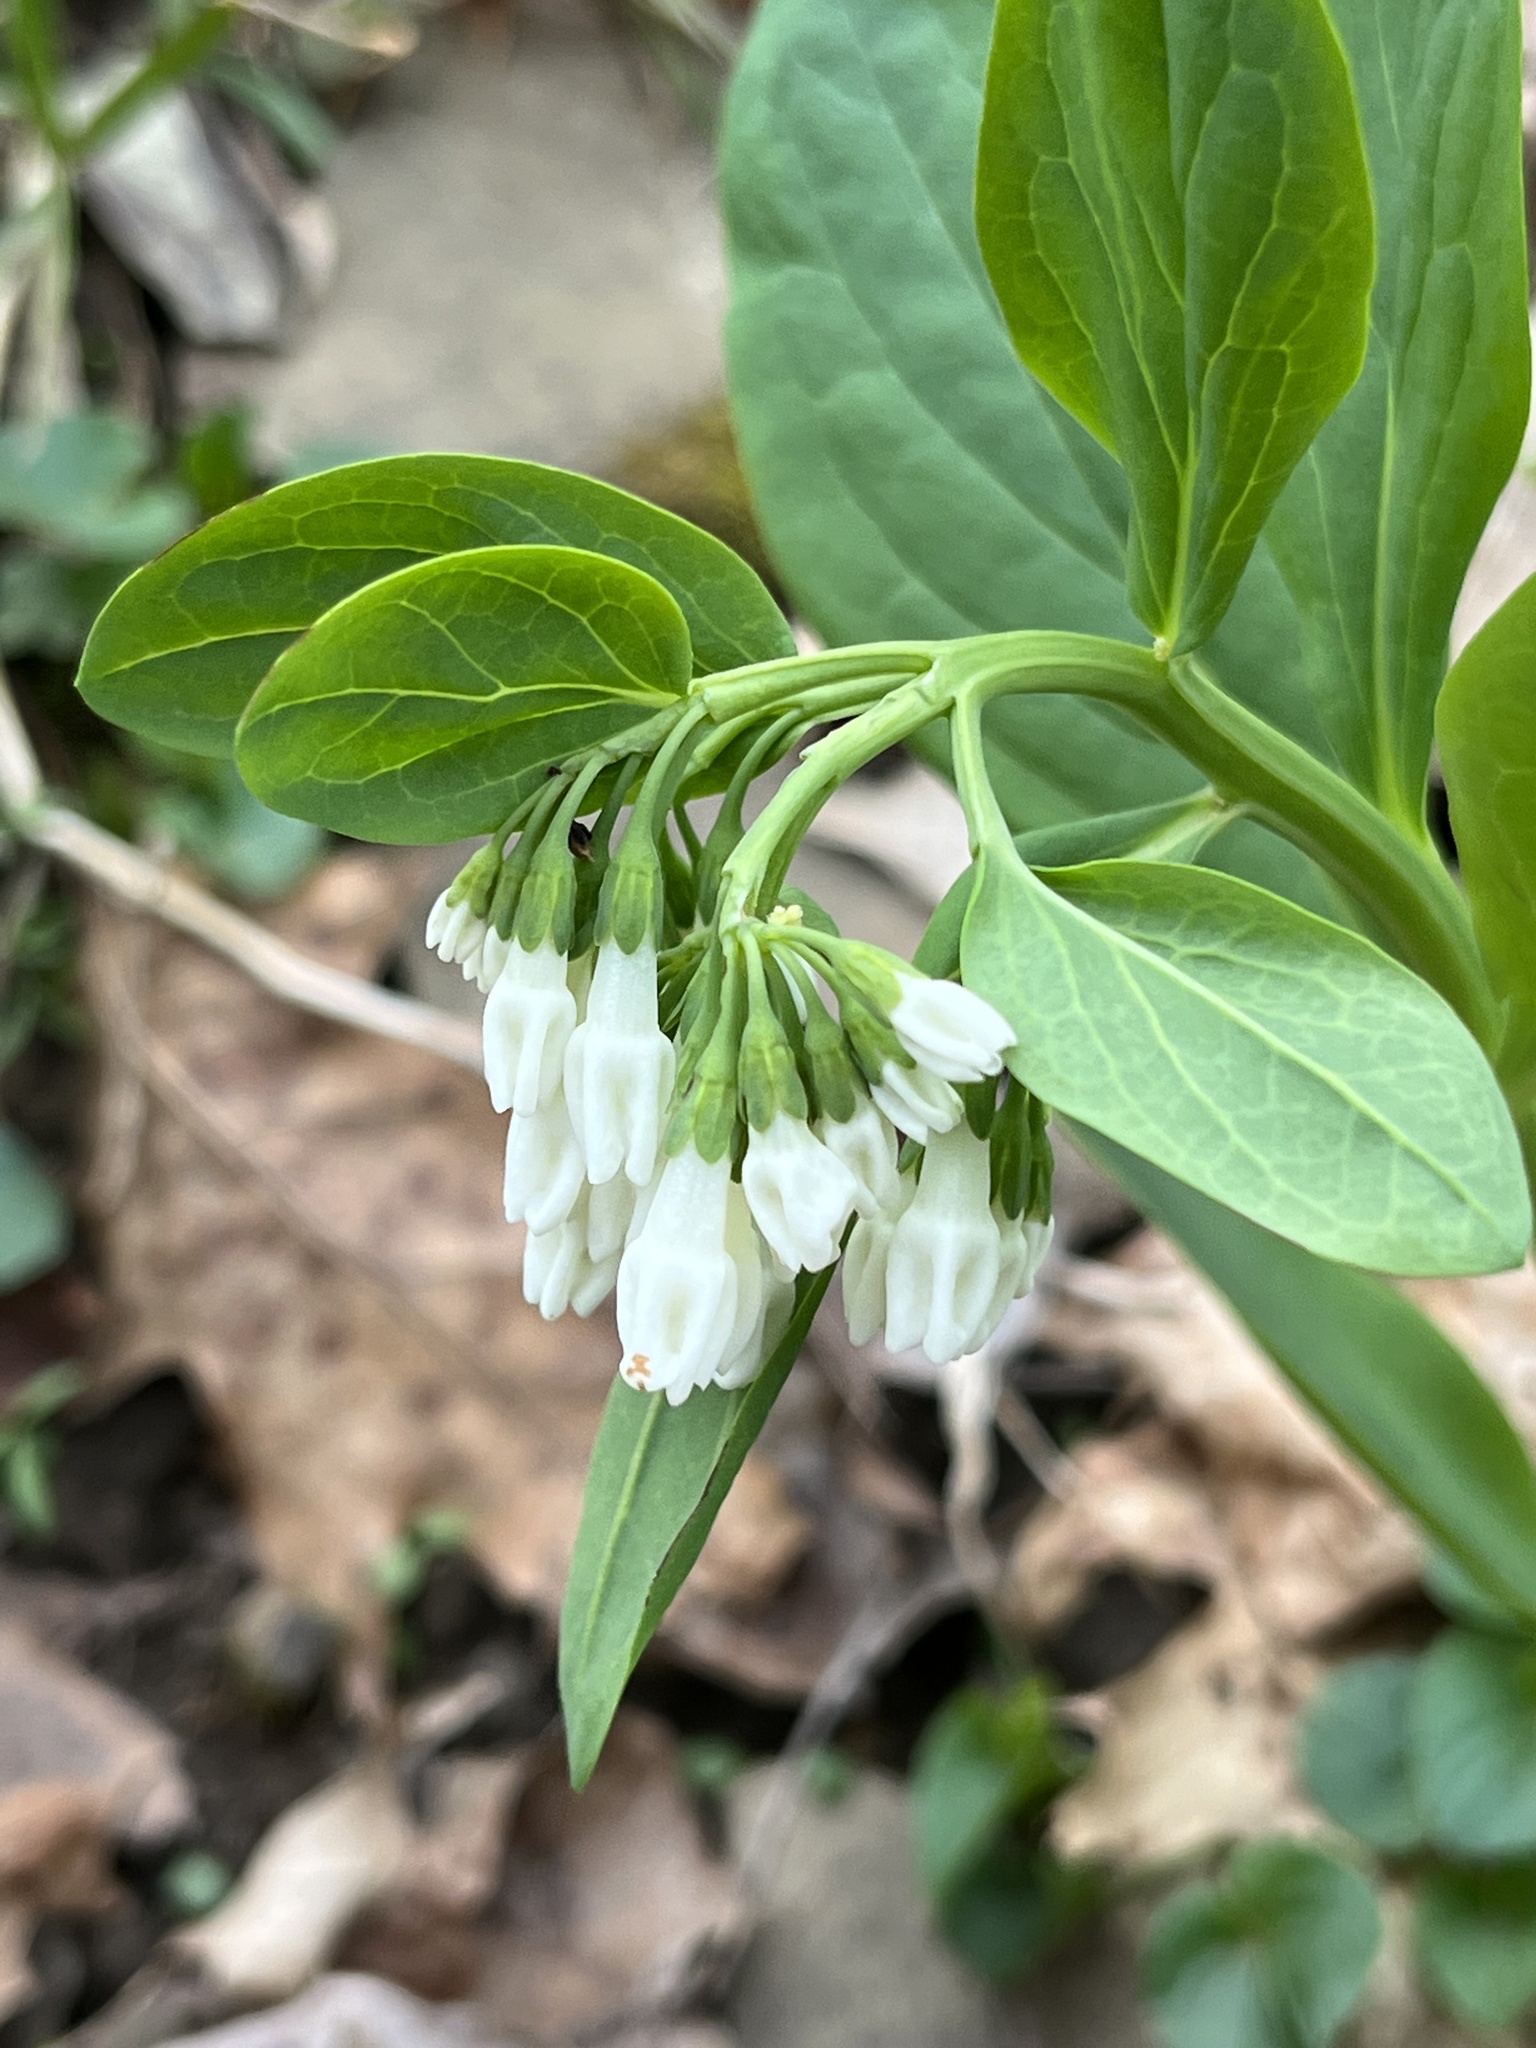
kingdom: Plantae
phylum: Tracheophyta
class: Magnoliopsida
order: Boraginales
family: Boraginaceae
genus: Mertensia
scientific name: Mertensia virginica
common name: Virginia bluebells
